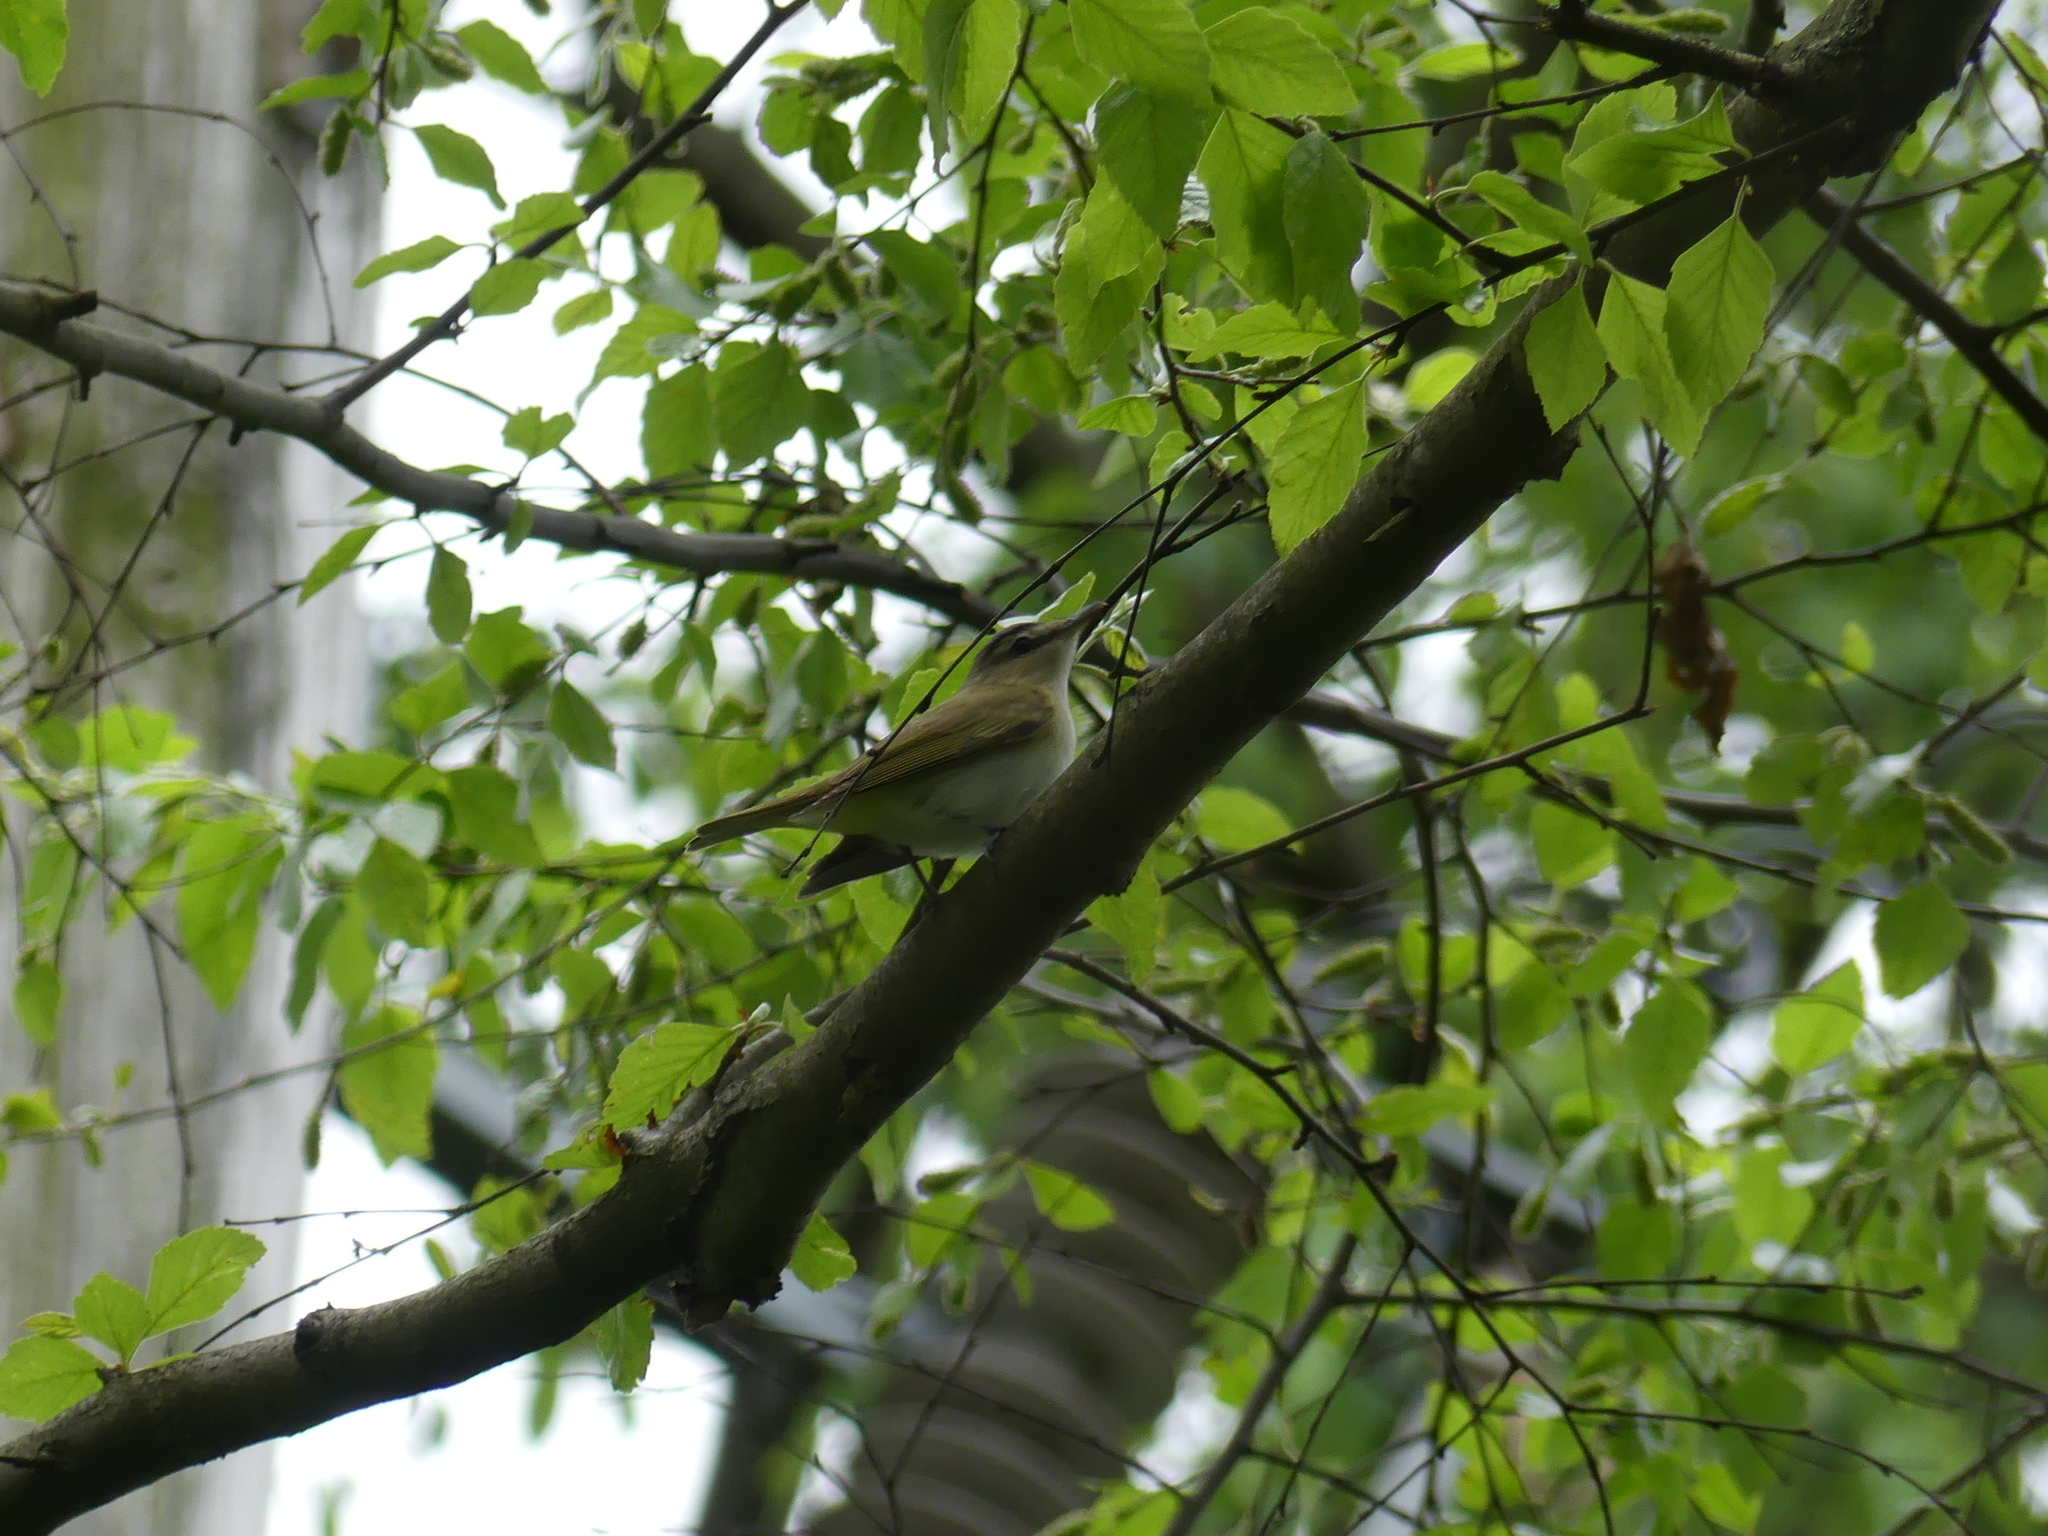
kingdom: Animalia
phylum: Chordata
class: Aves
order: Passeriformes
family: Vireonidae
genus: Vireo
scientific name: Vireo olivaceus
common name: Red-eyed vireo
